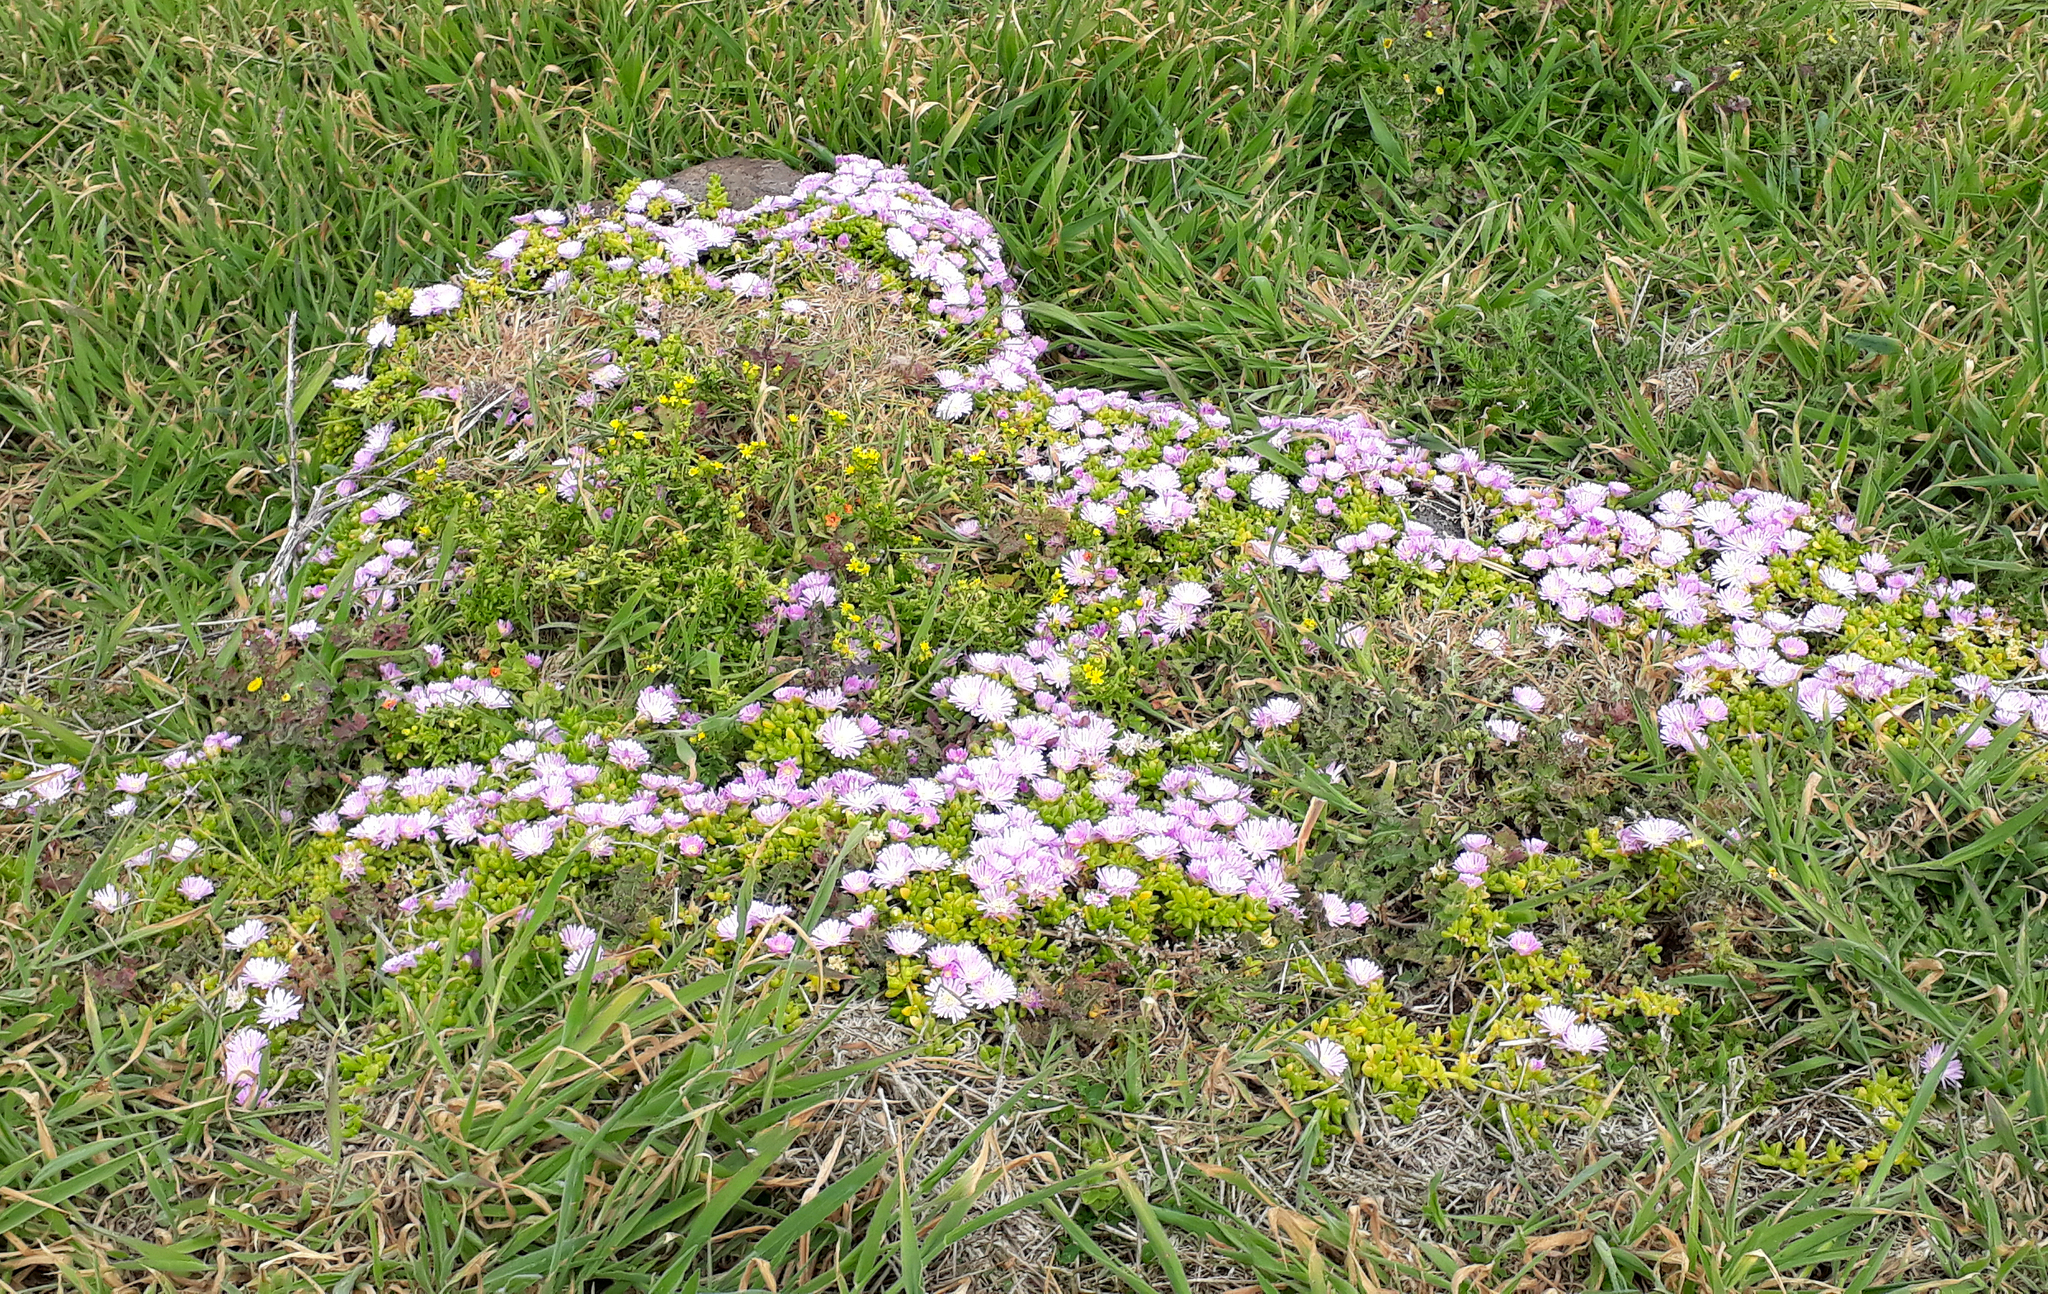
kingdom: Plantae
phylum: Tracheophyta
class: Magnoliopsida
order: Caryophyllales
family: Aizoaceae
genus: Disphyma
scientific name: Disphyma papillatum
